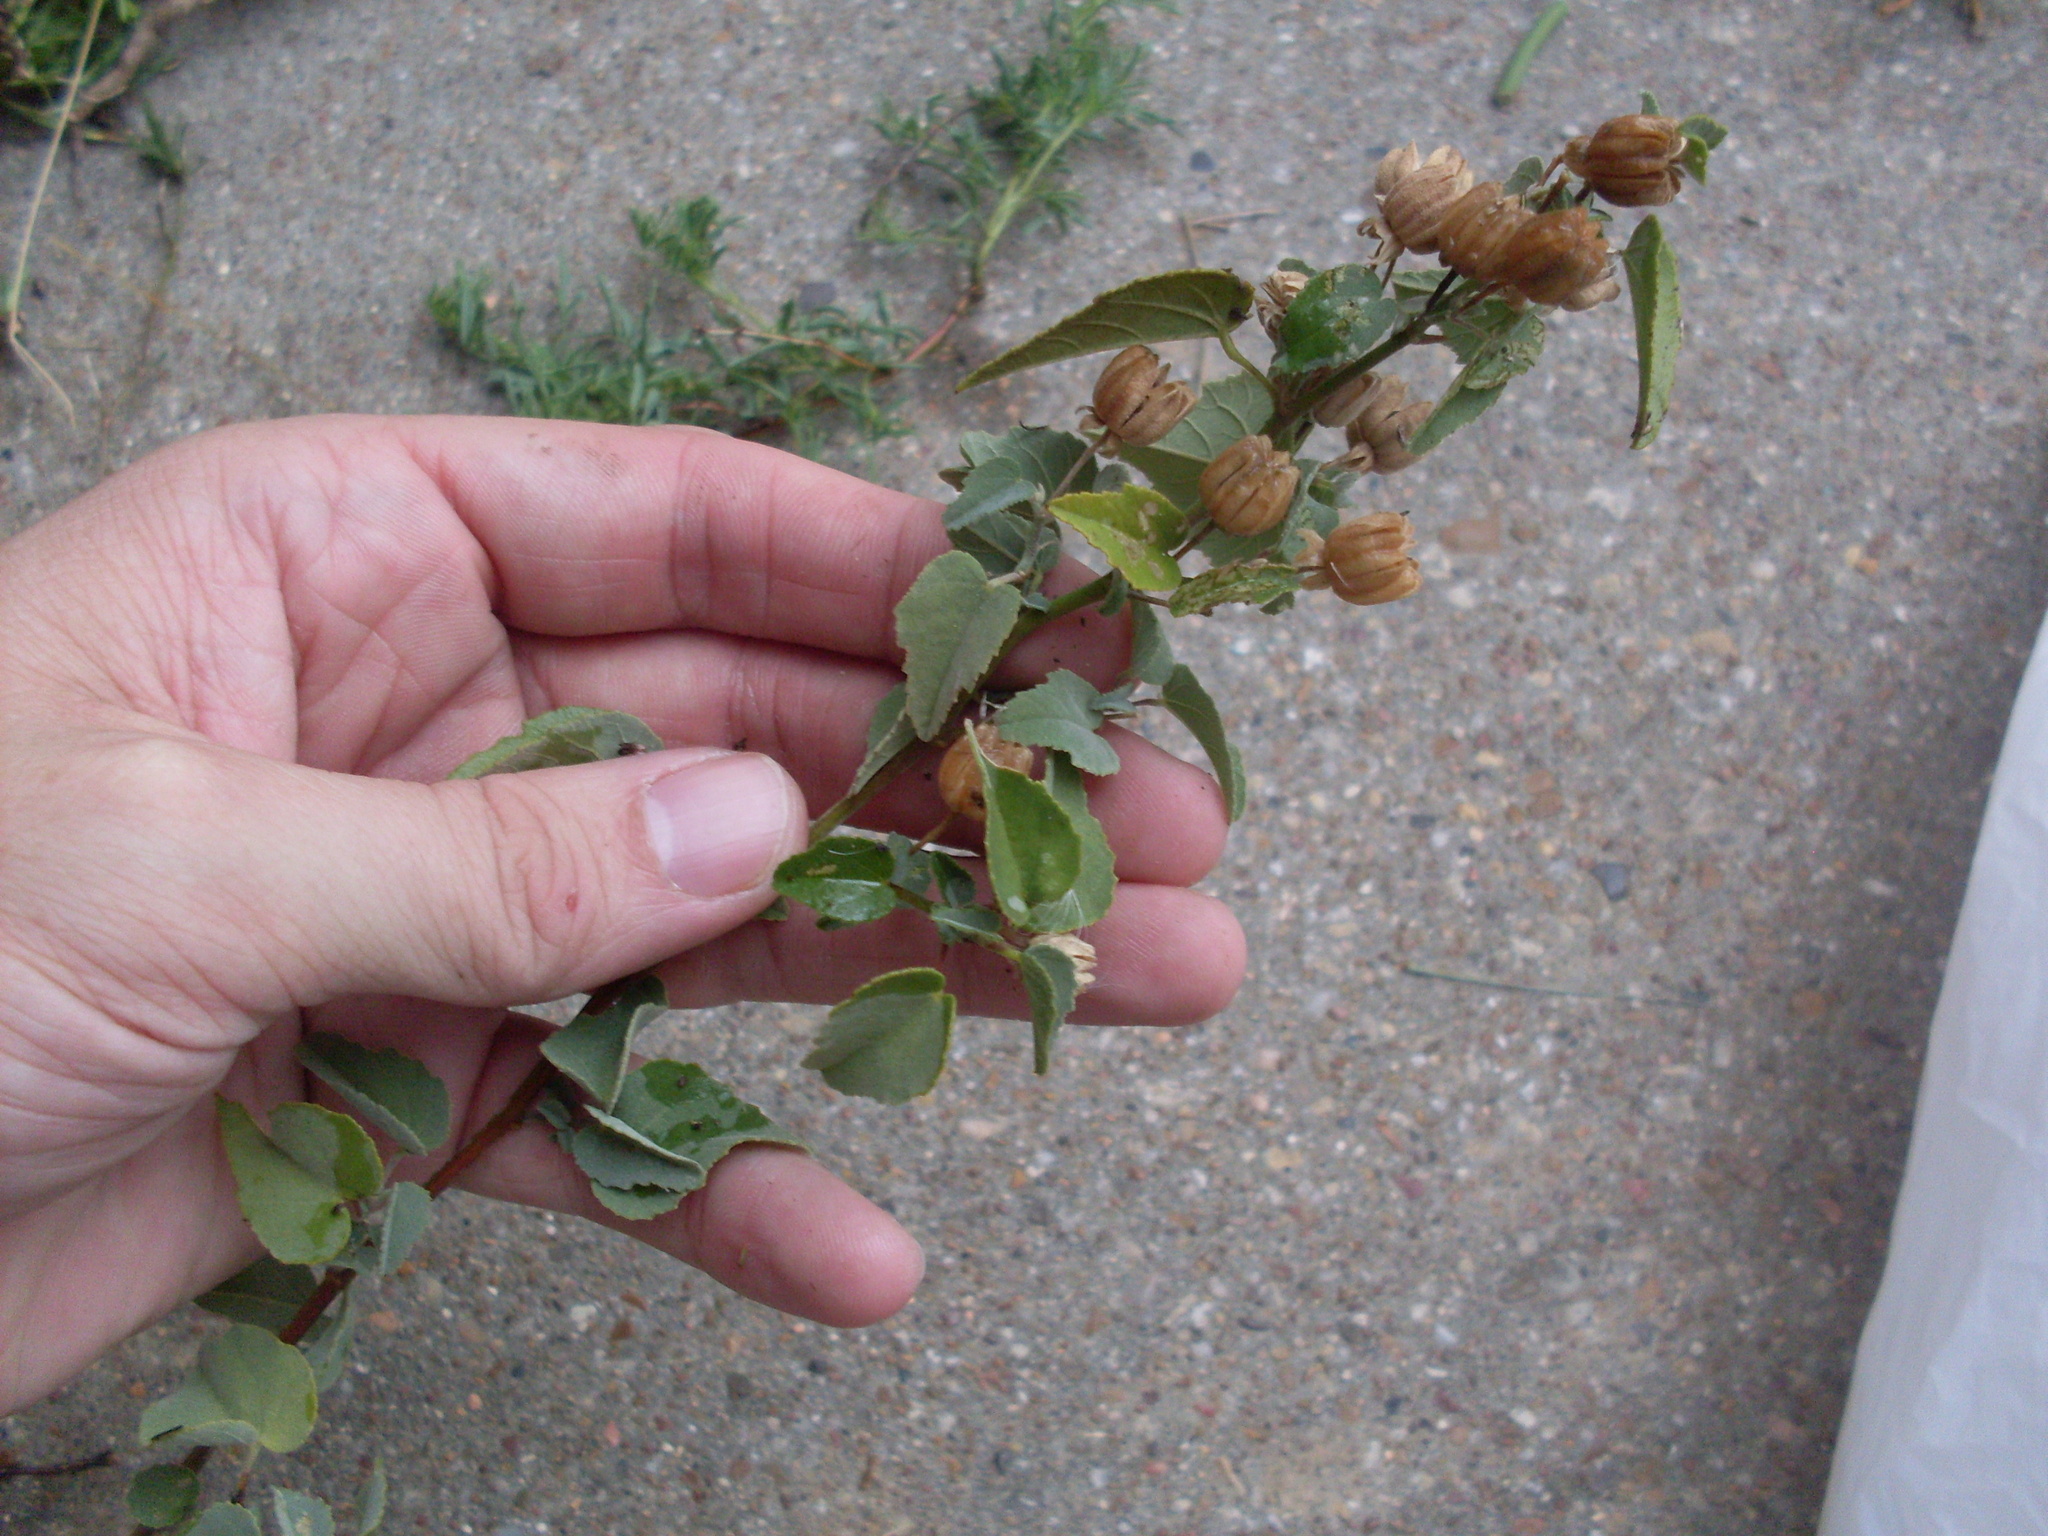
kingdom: Plantae
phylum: Tracheophyta
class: Magnoliopsida
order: Malvales
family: Malvaceae
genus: Abutilon
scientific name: Abutilon fruticosum
